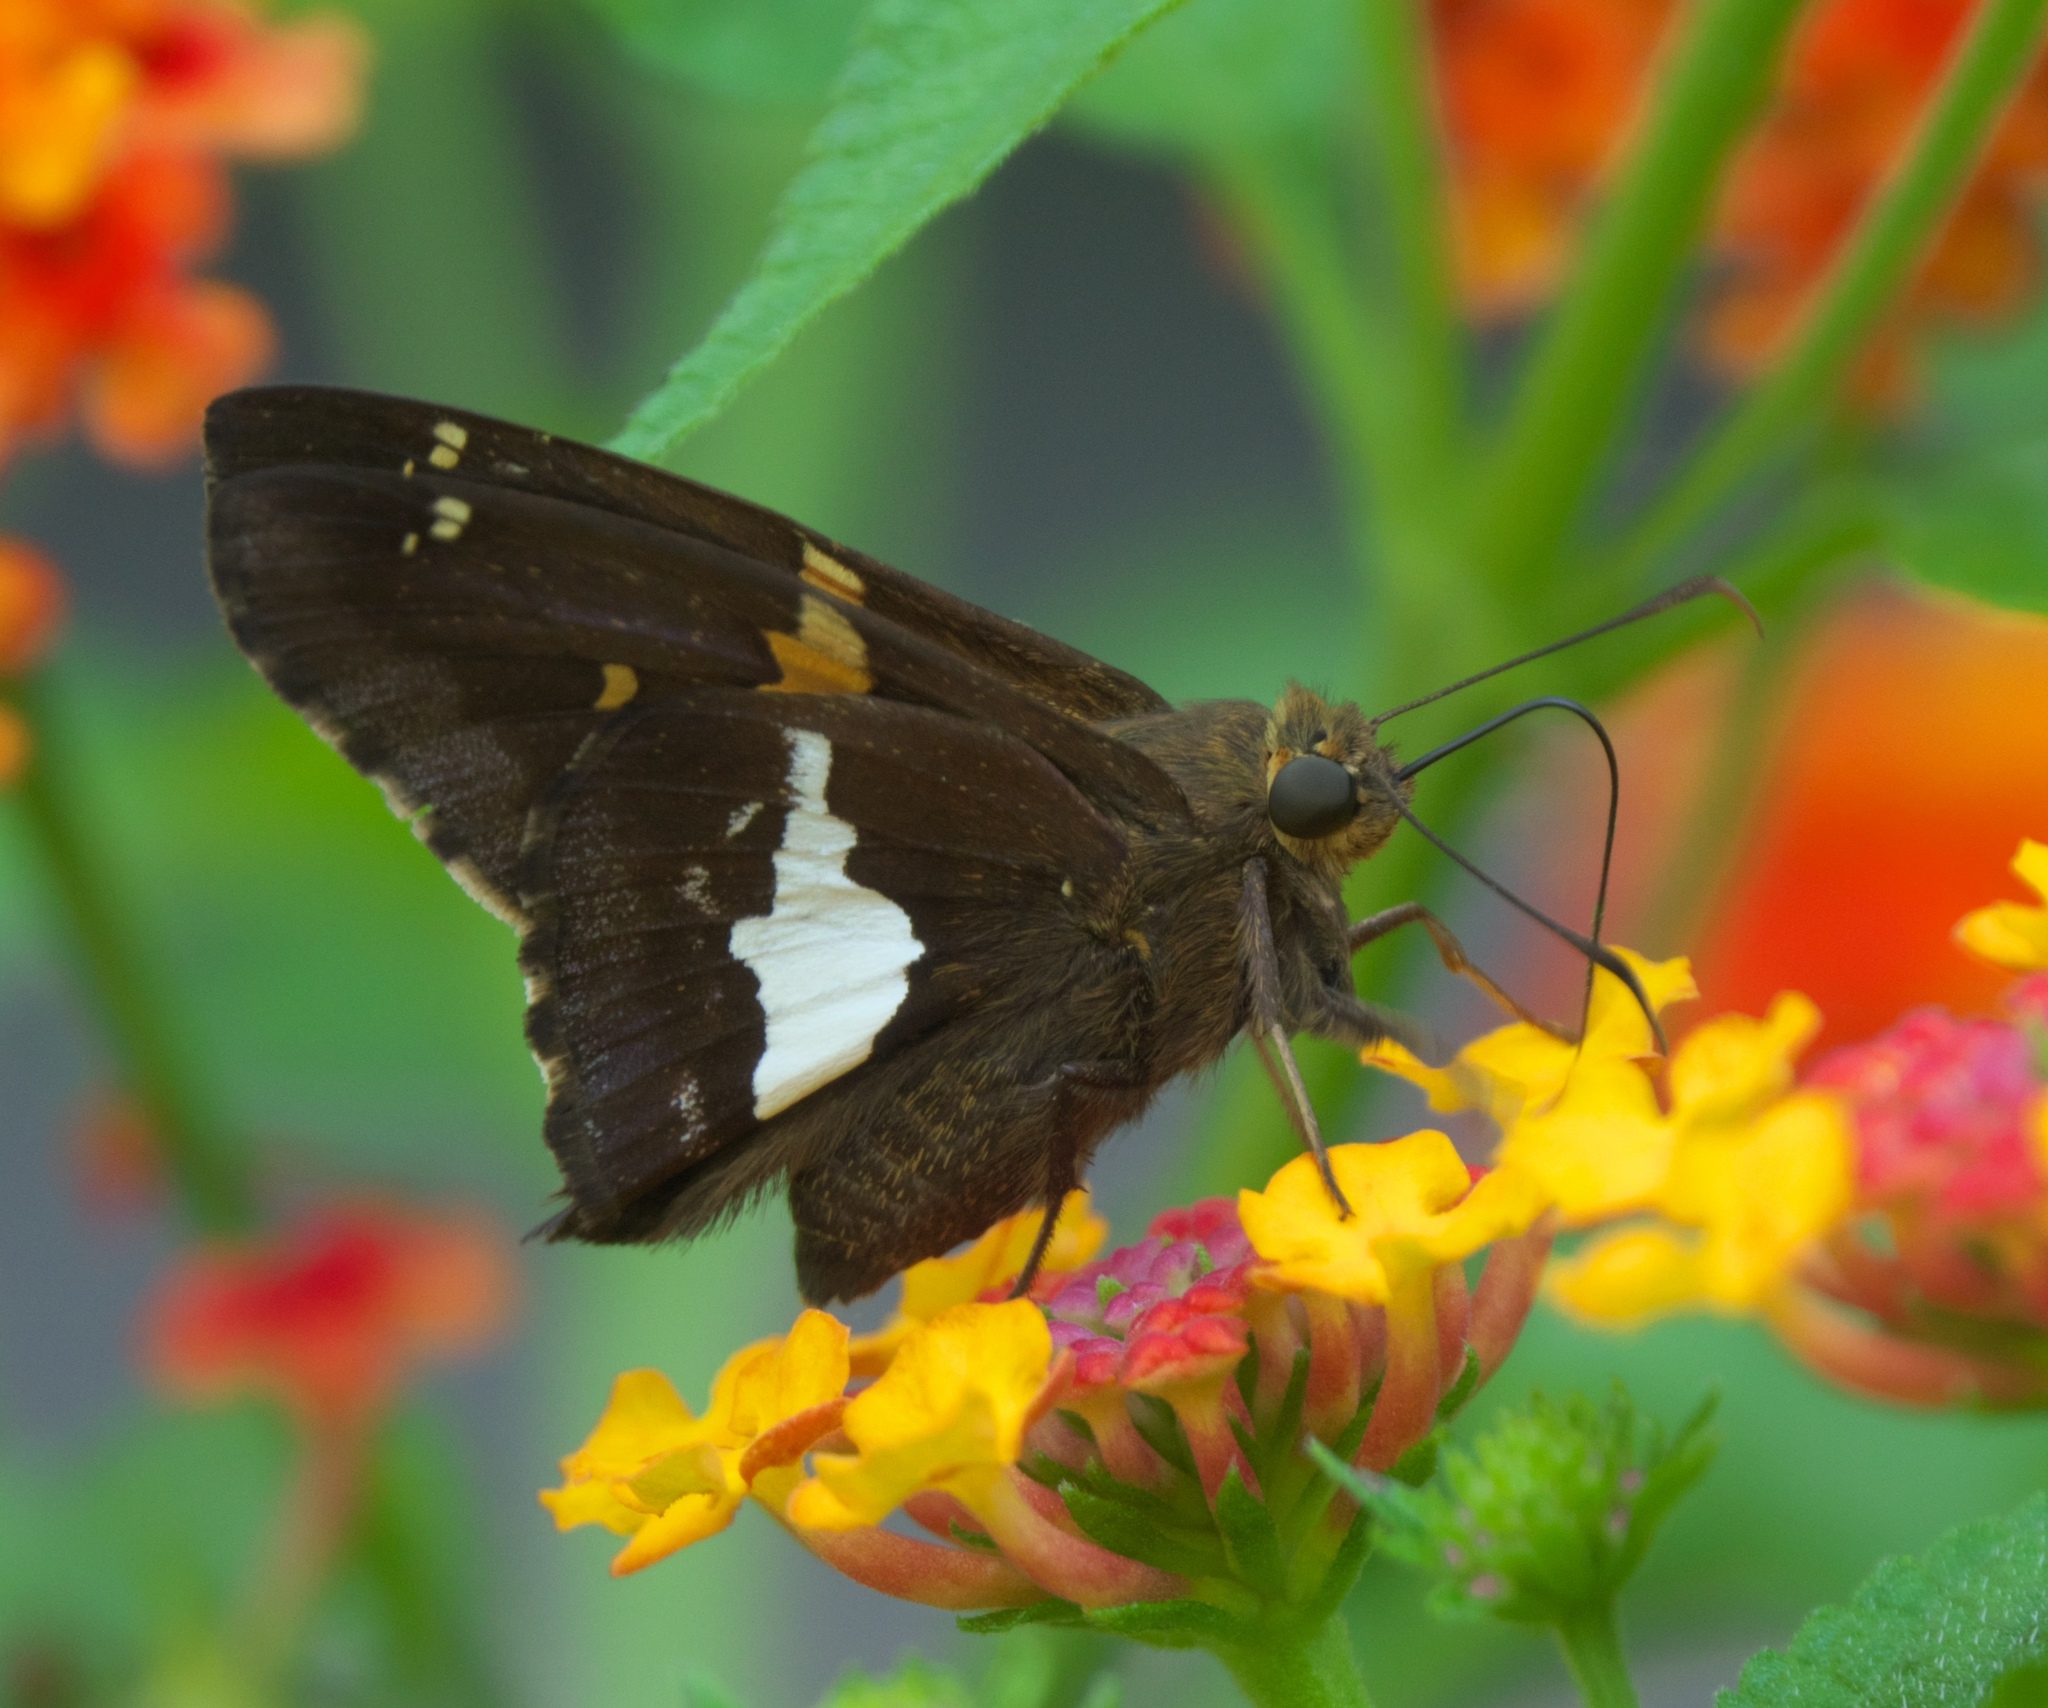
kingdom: Animalia
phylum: Arthropoda
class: Insecta
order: Lepidoptera
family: Hesperiidae
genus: Epargyreus
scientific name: Epargyreus clarus
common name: Silver-spotted skipper
